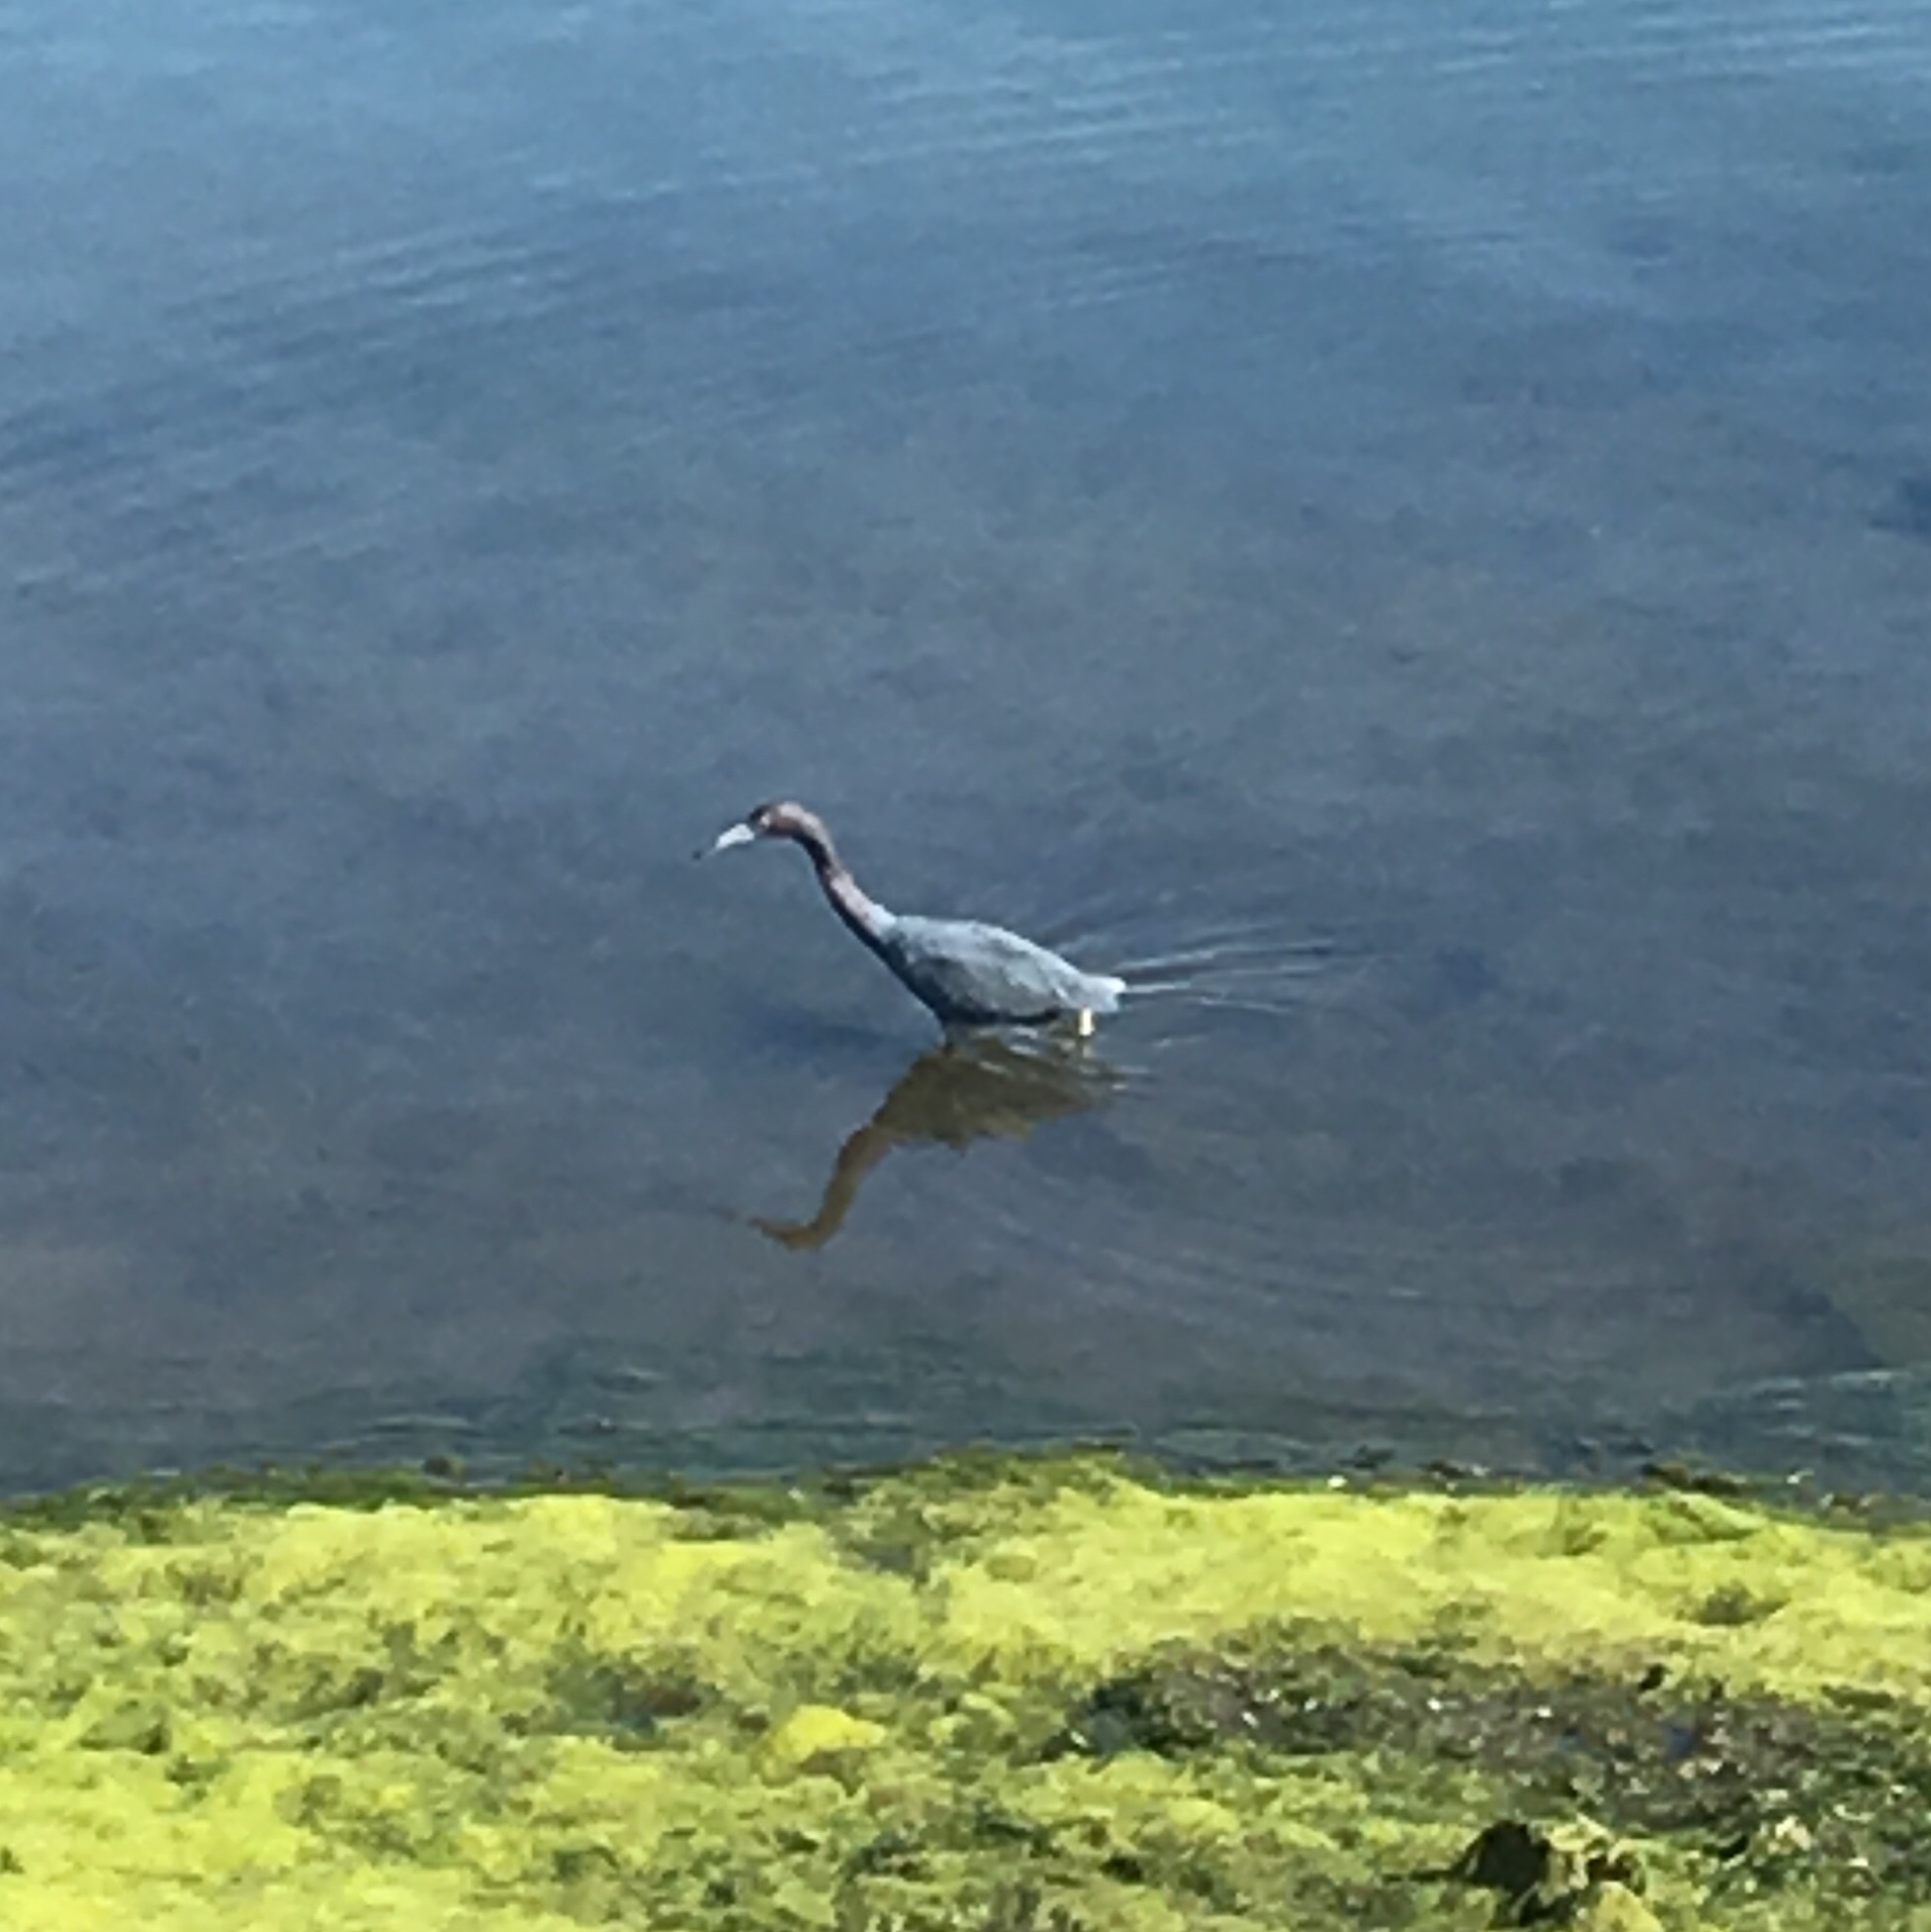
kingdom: Animalia
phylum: Chordata
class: Aves
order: Pelecaniformes
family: Ardeidae
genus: Egretta
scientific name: Egretta caerulea
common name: Little blue heron
